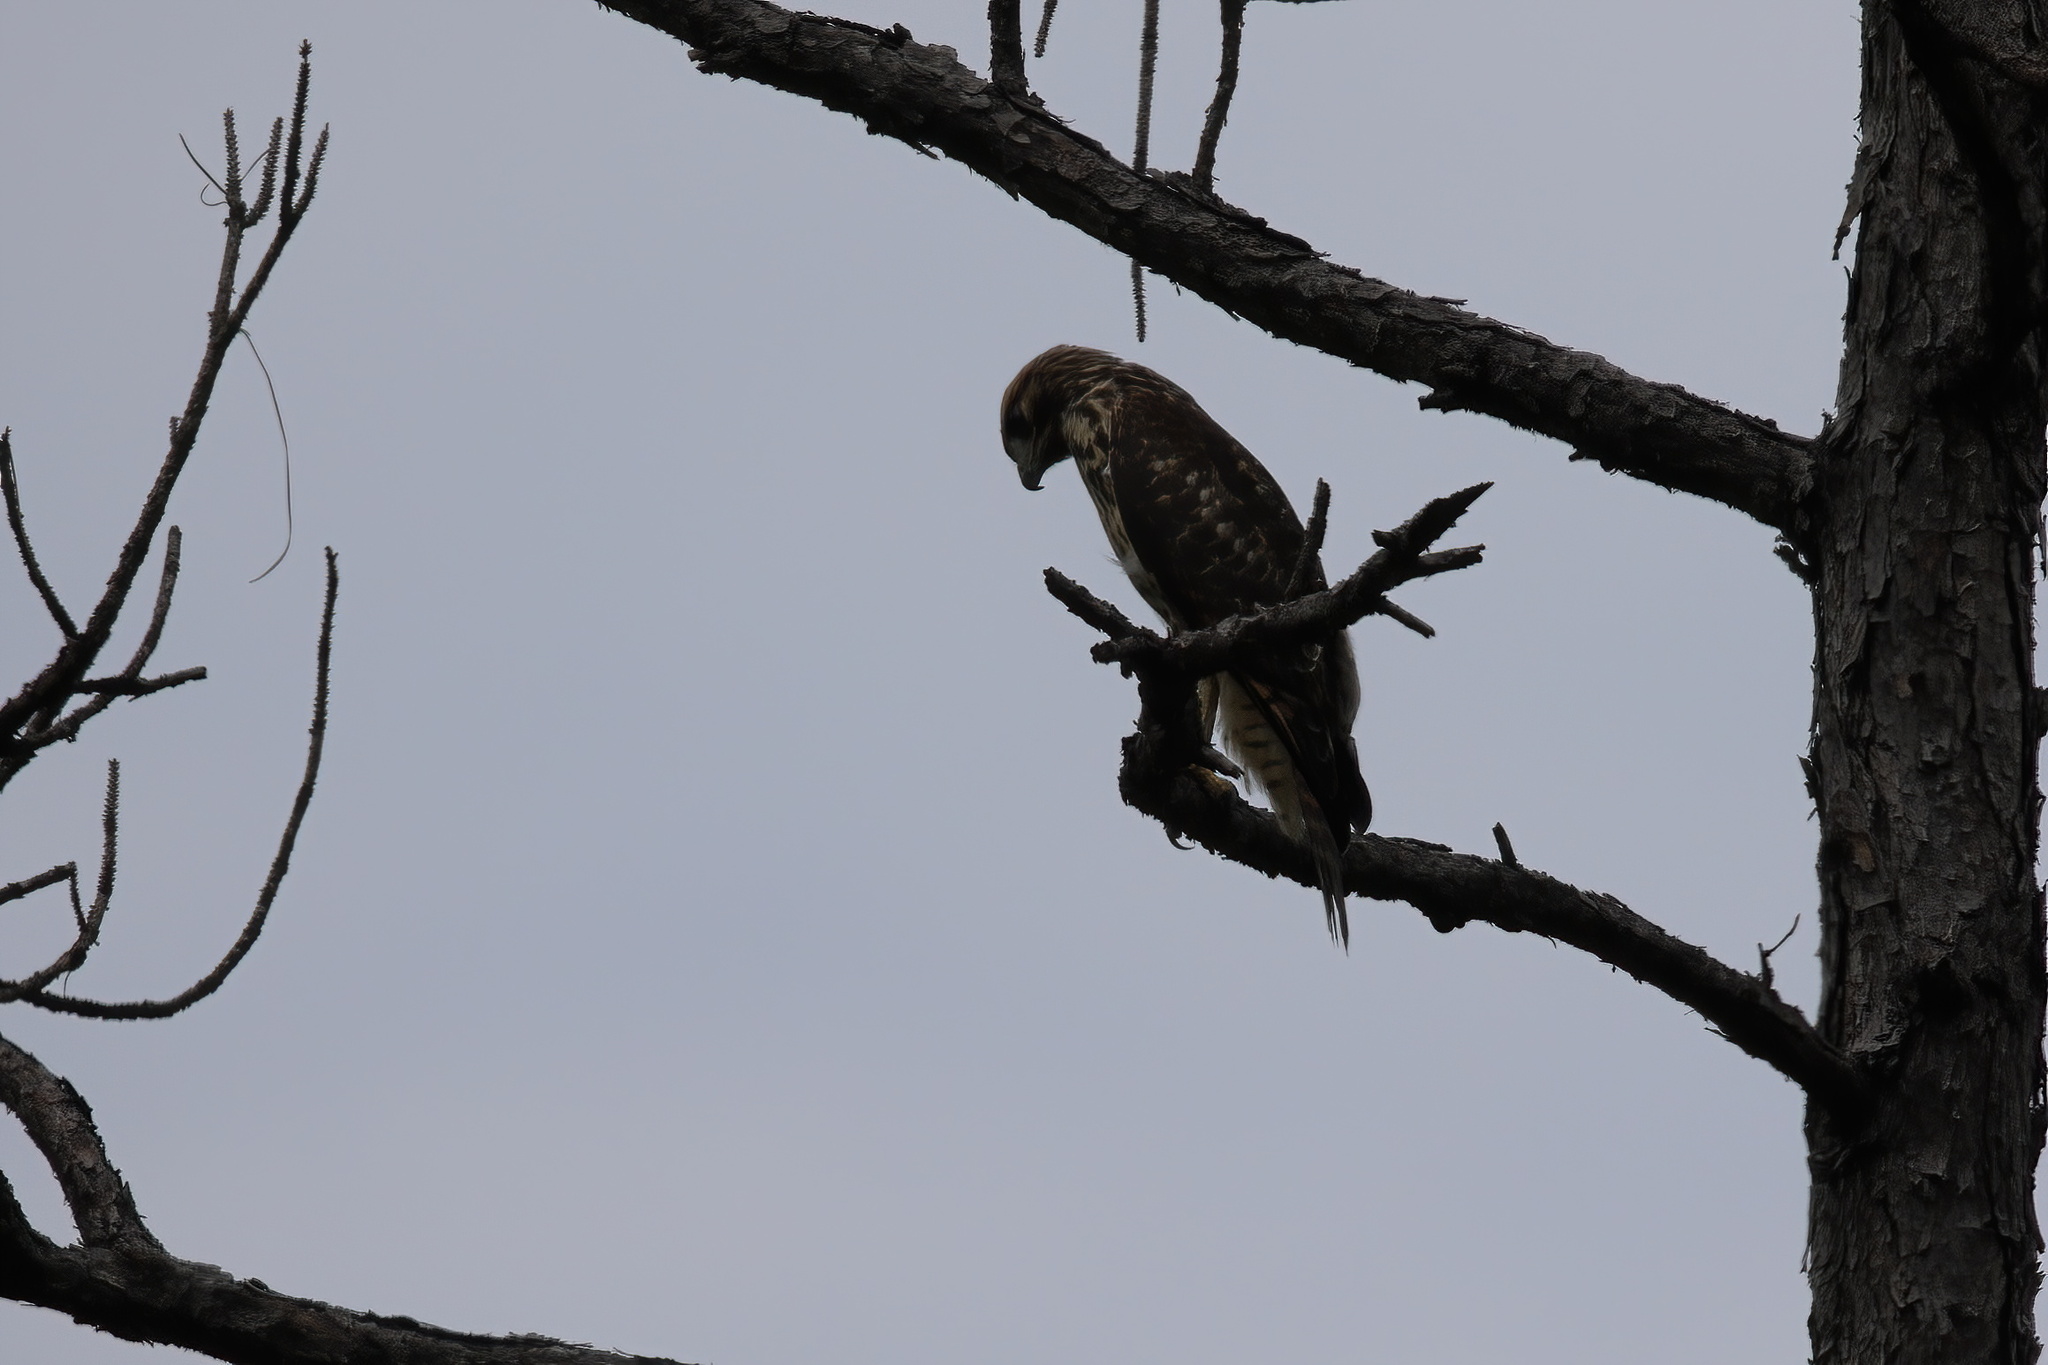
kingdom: Animalia
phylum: Chordata
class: Aves
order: Accipitriformes
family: Accipitridae
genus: Buteo
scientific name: Buteo lineatus
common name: Red-shouldered hawk
